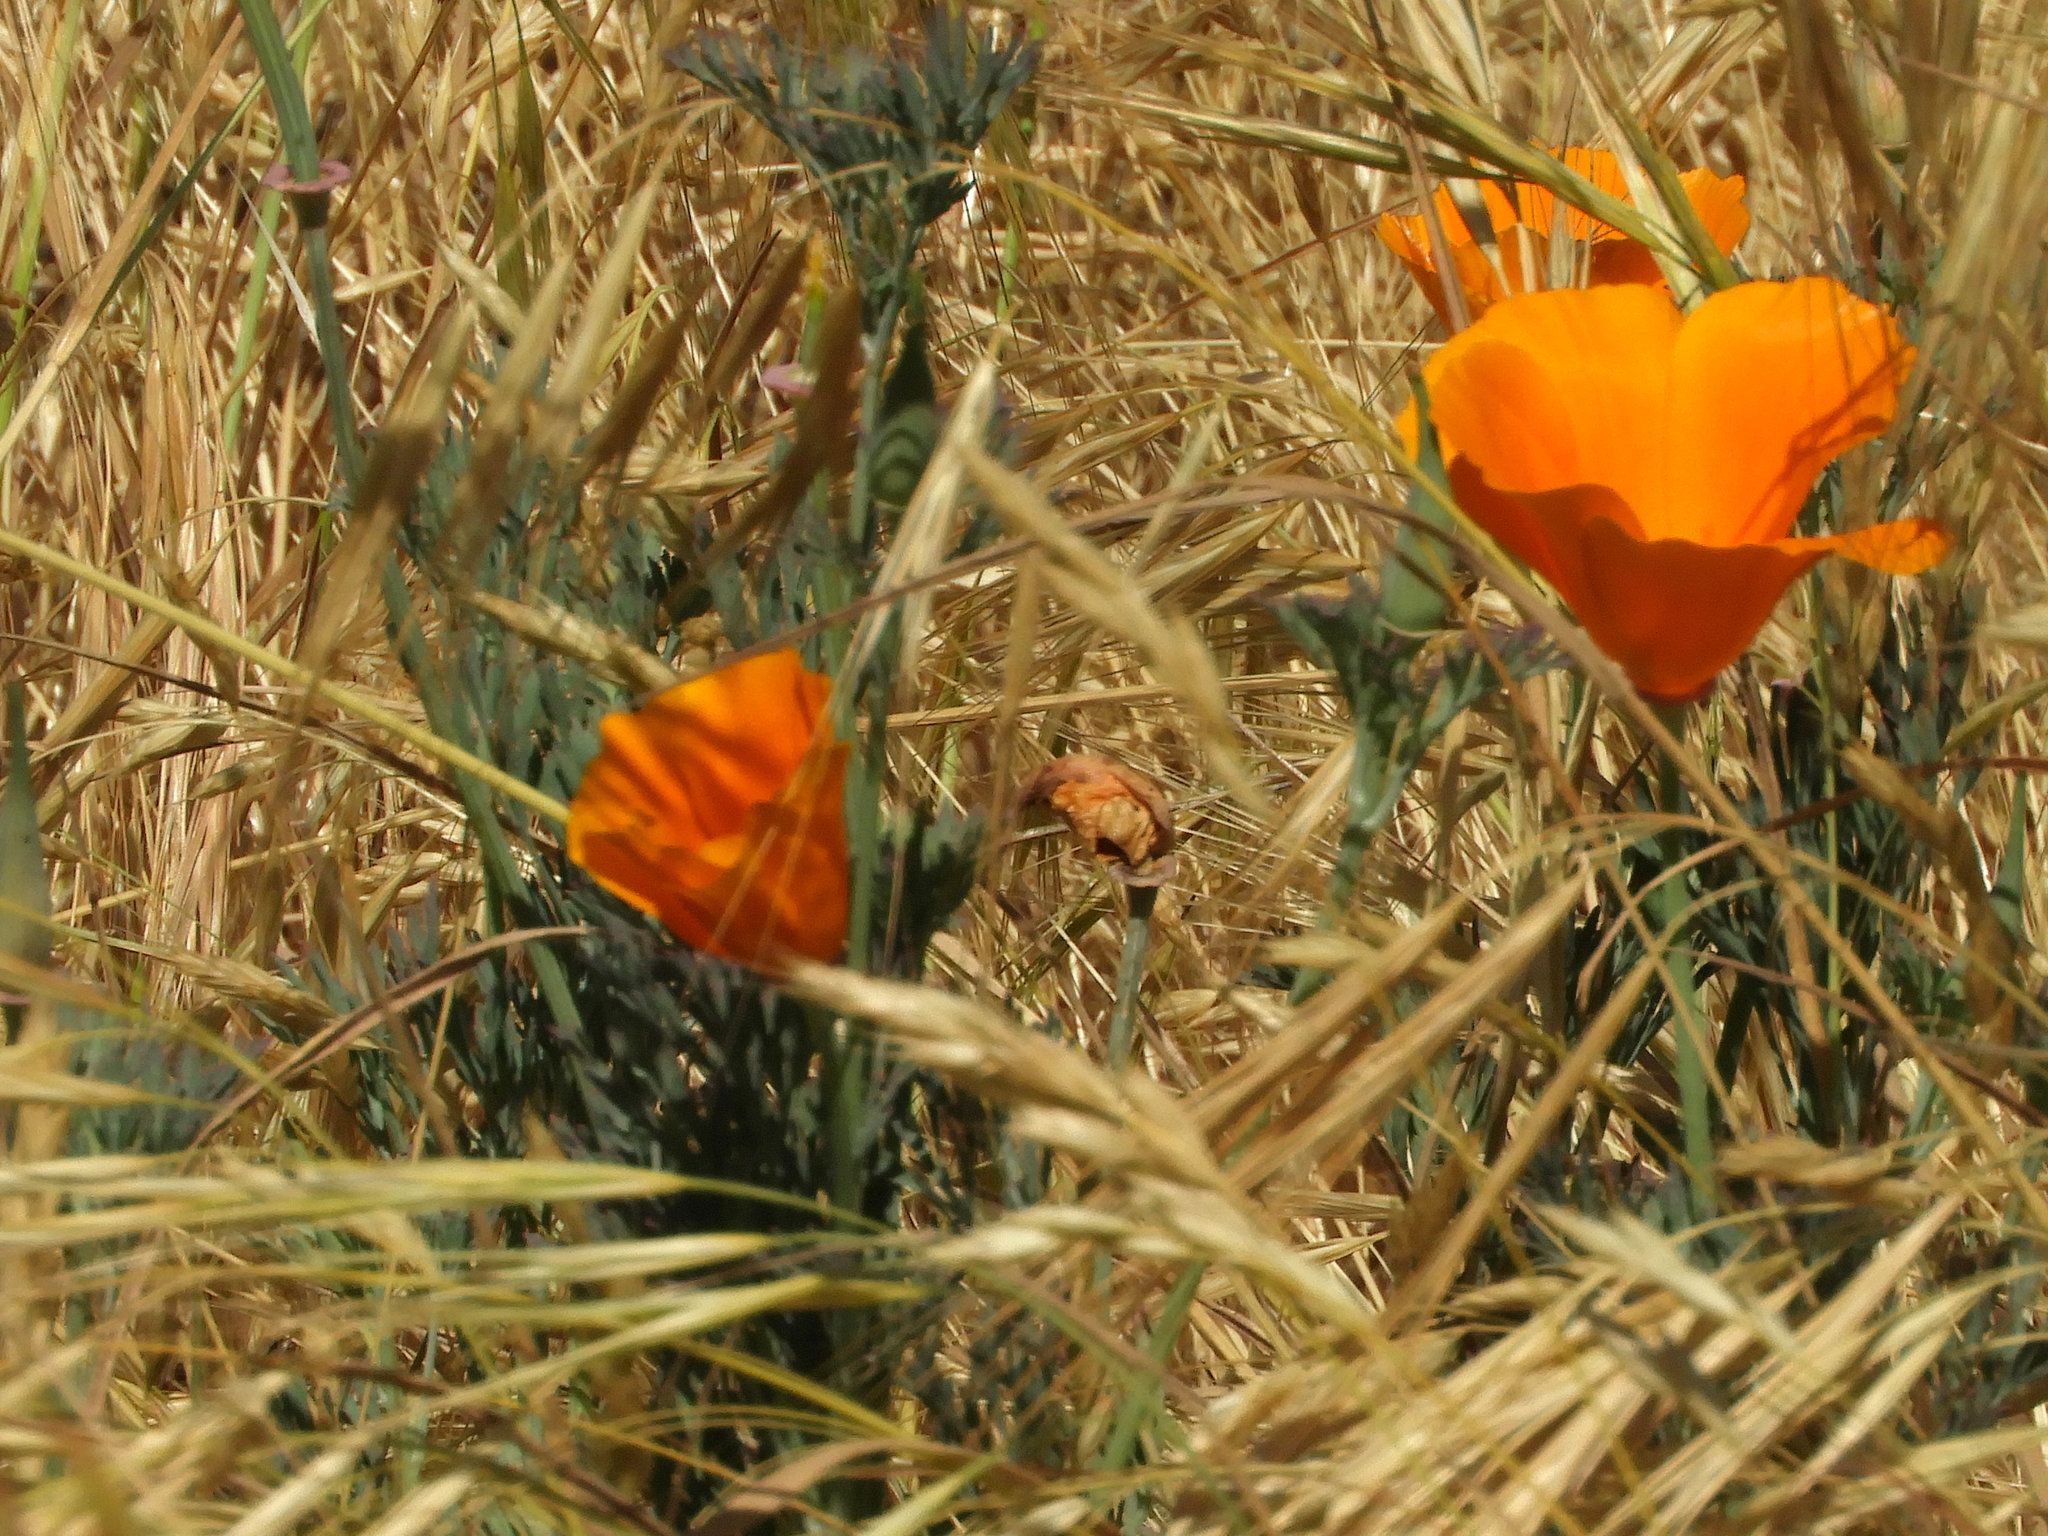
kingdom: Plantae
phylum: Tracheophyta
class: Magnoliopsida
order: Ranunculales
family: Papaveraceae
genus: Eschscholzia
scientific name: Eschscholzia californica
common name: California poppy
